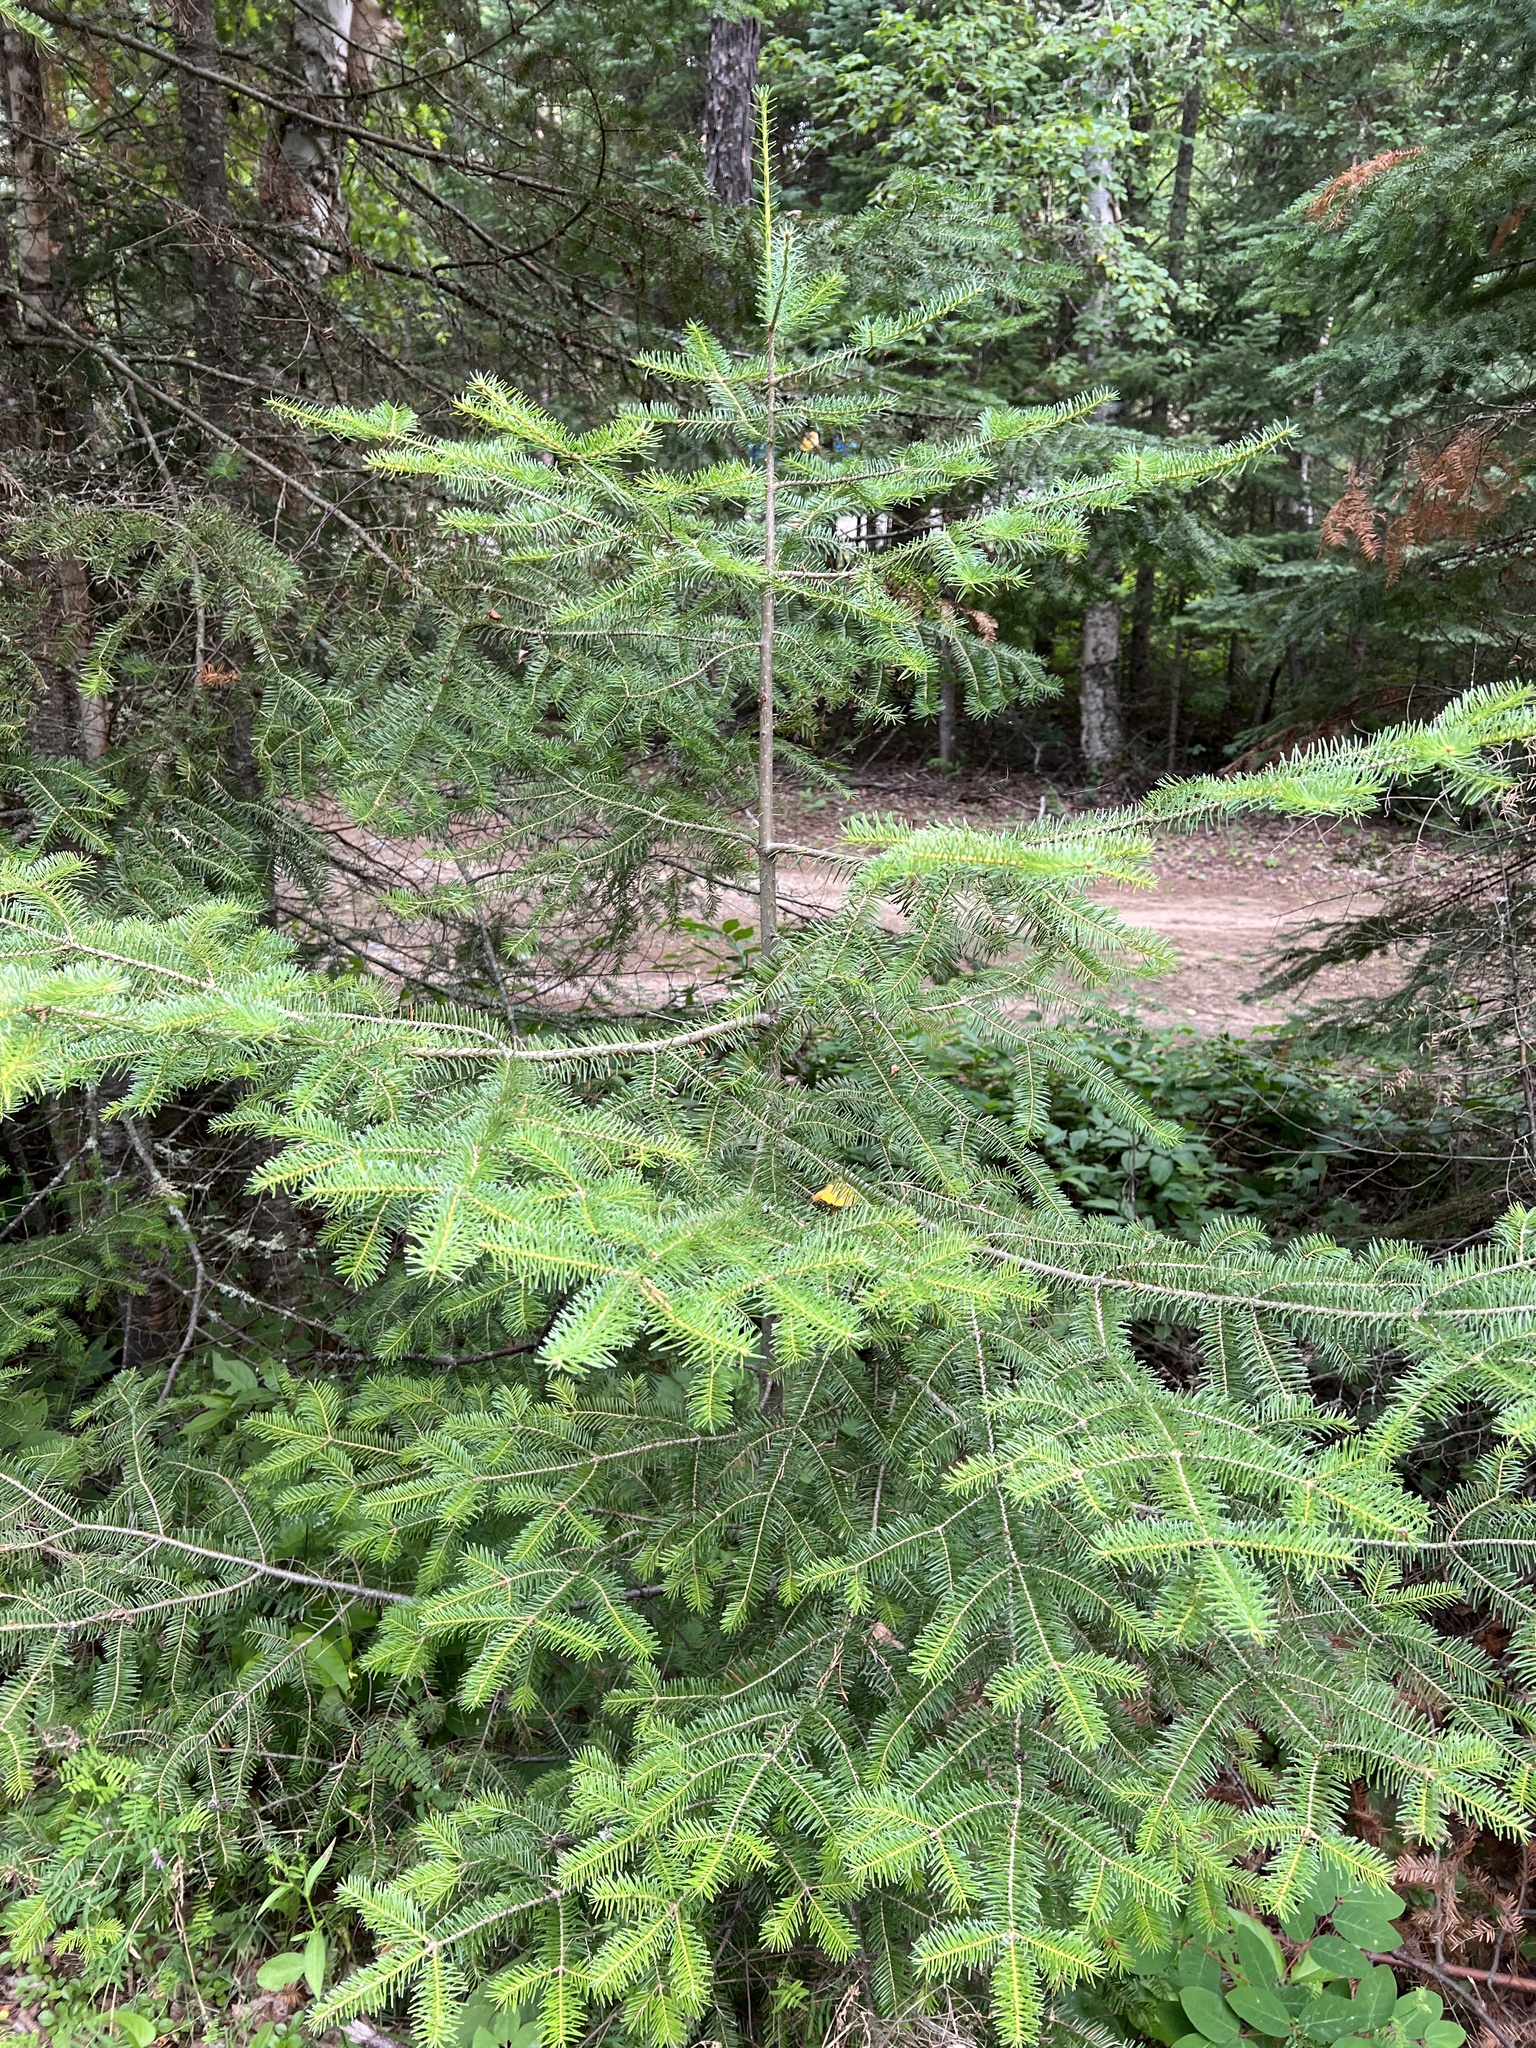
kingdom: Plantae
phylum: Tracheophyta
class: Pinopsida
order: Pinales
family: Pinaceae
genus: Abies
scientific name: Abies balsamea
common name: Balsam fir
